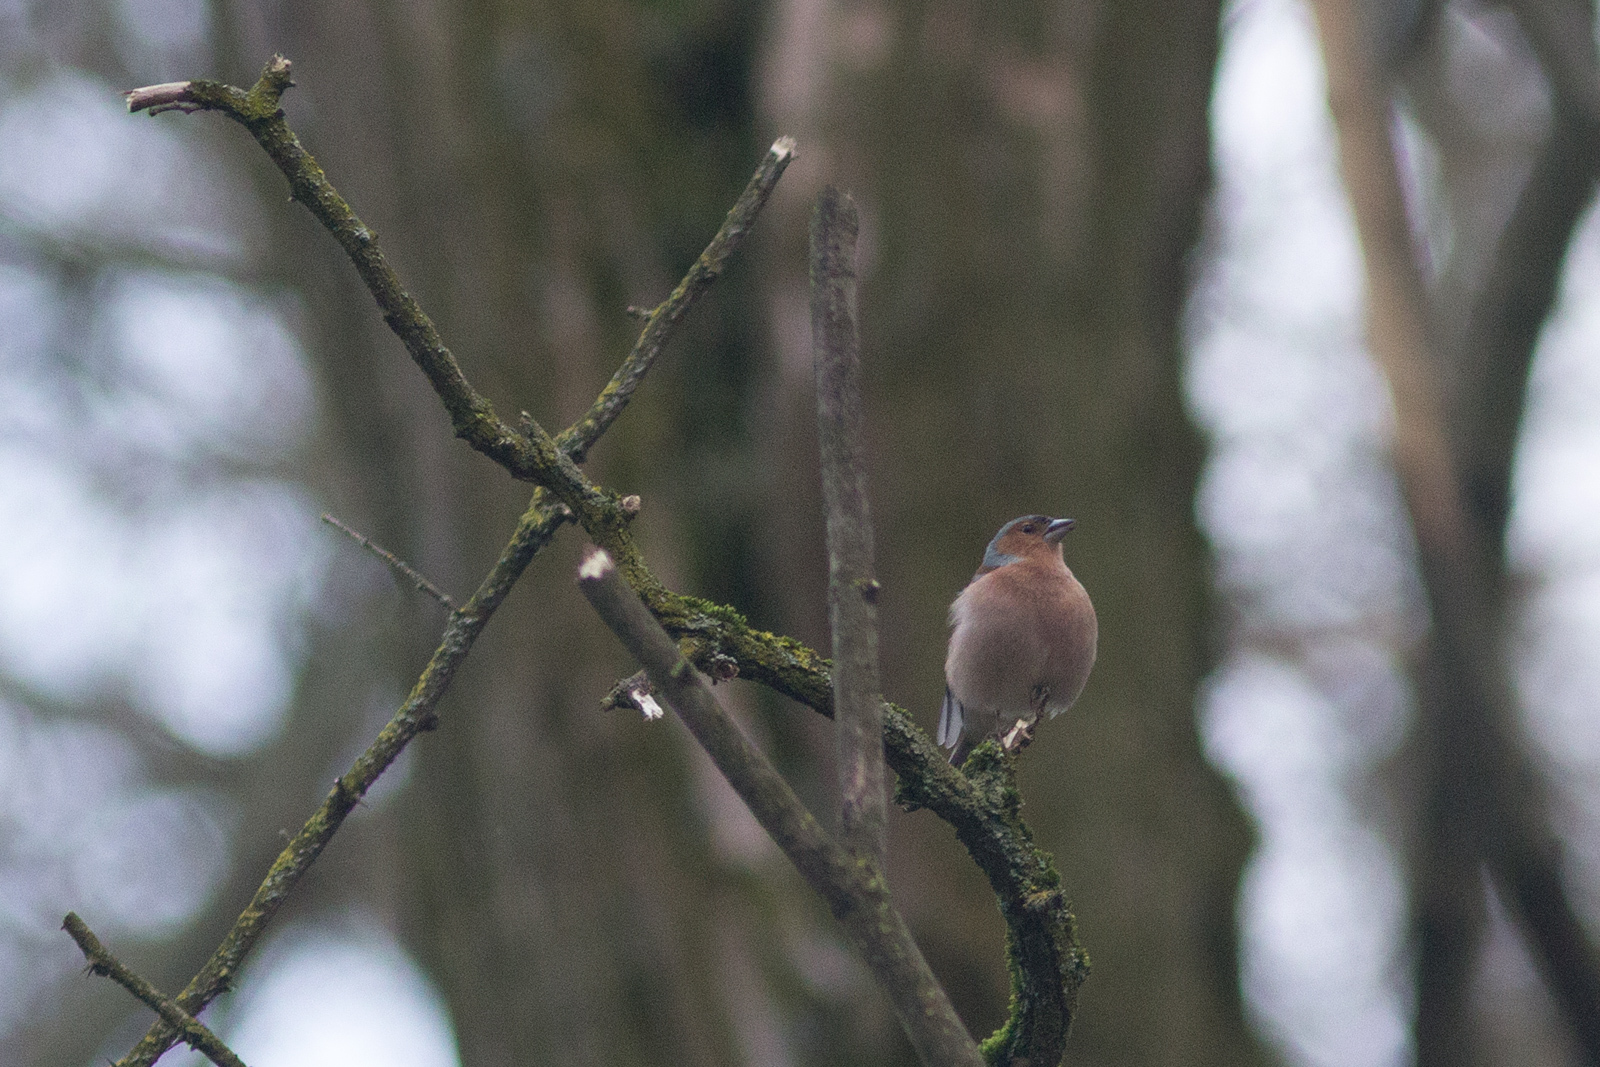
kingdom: Animalia
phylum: Chordata
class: Aves
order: Passeriformes
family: Fringillidae
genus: Fringilla
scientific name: Fringilla coelebs
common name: Common chaffinch
